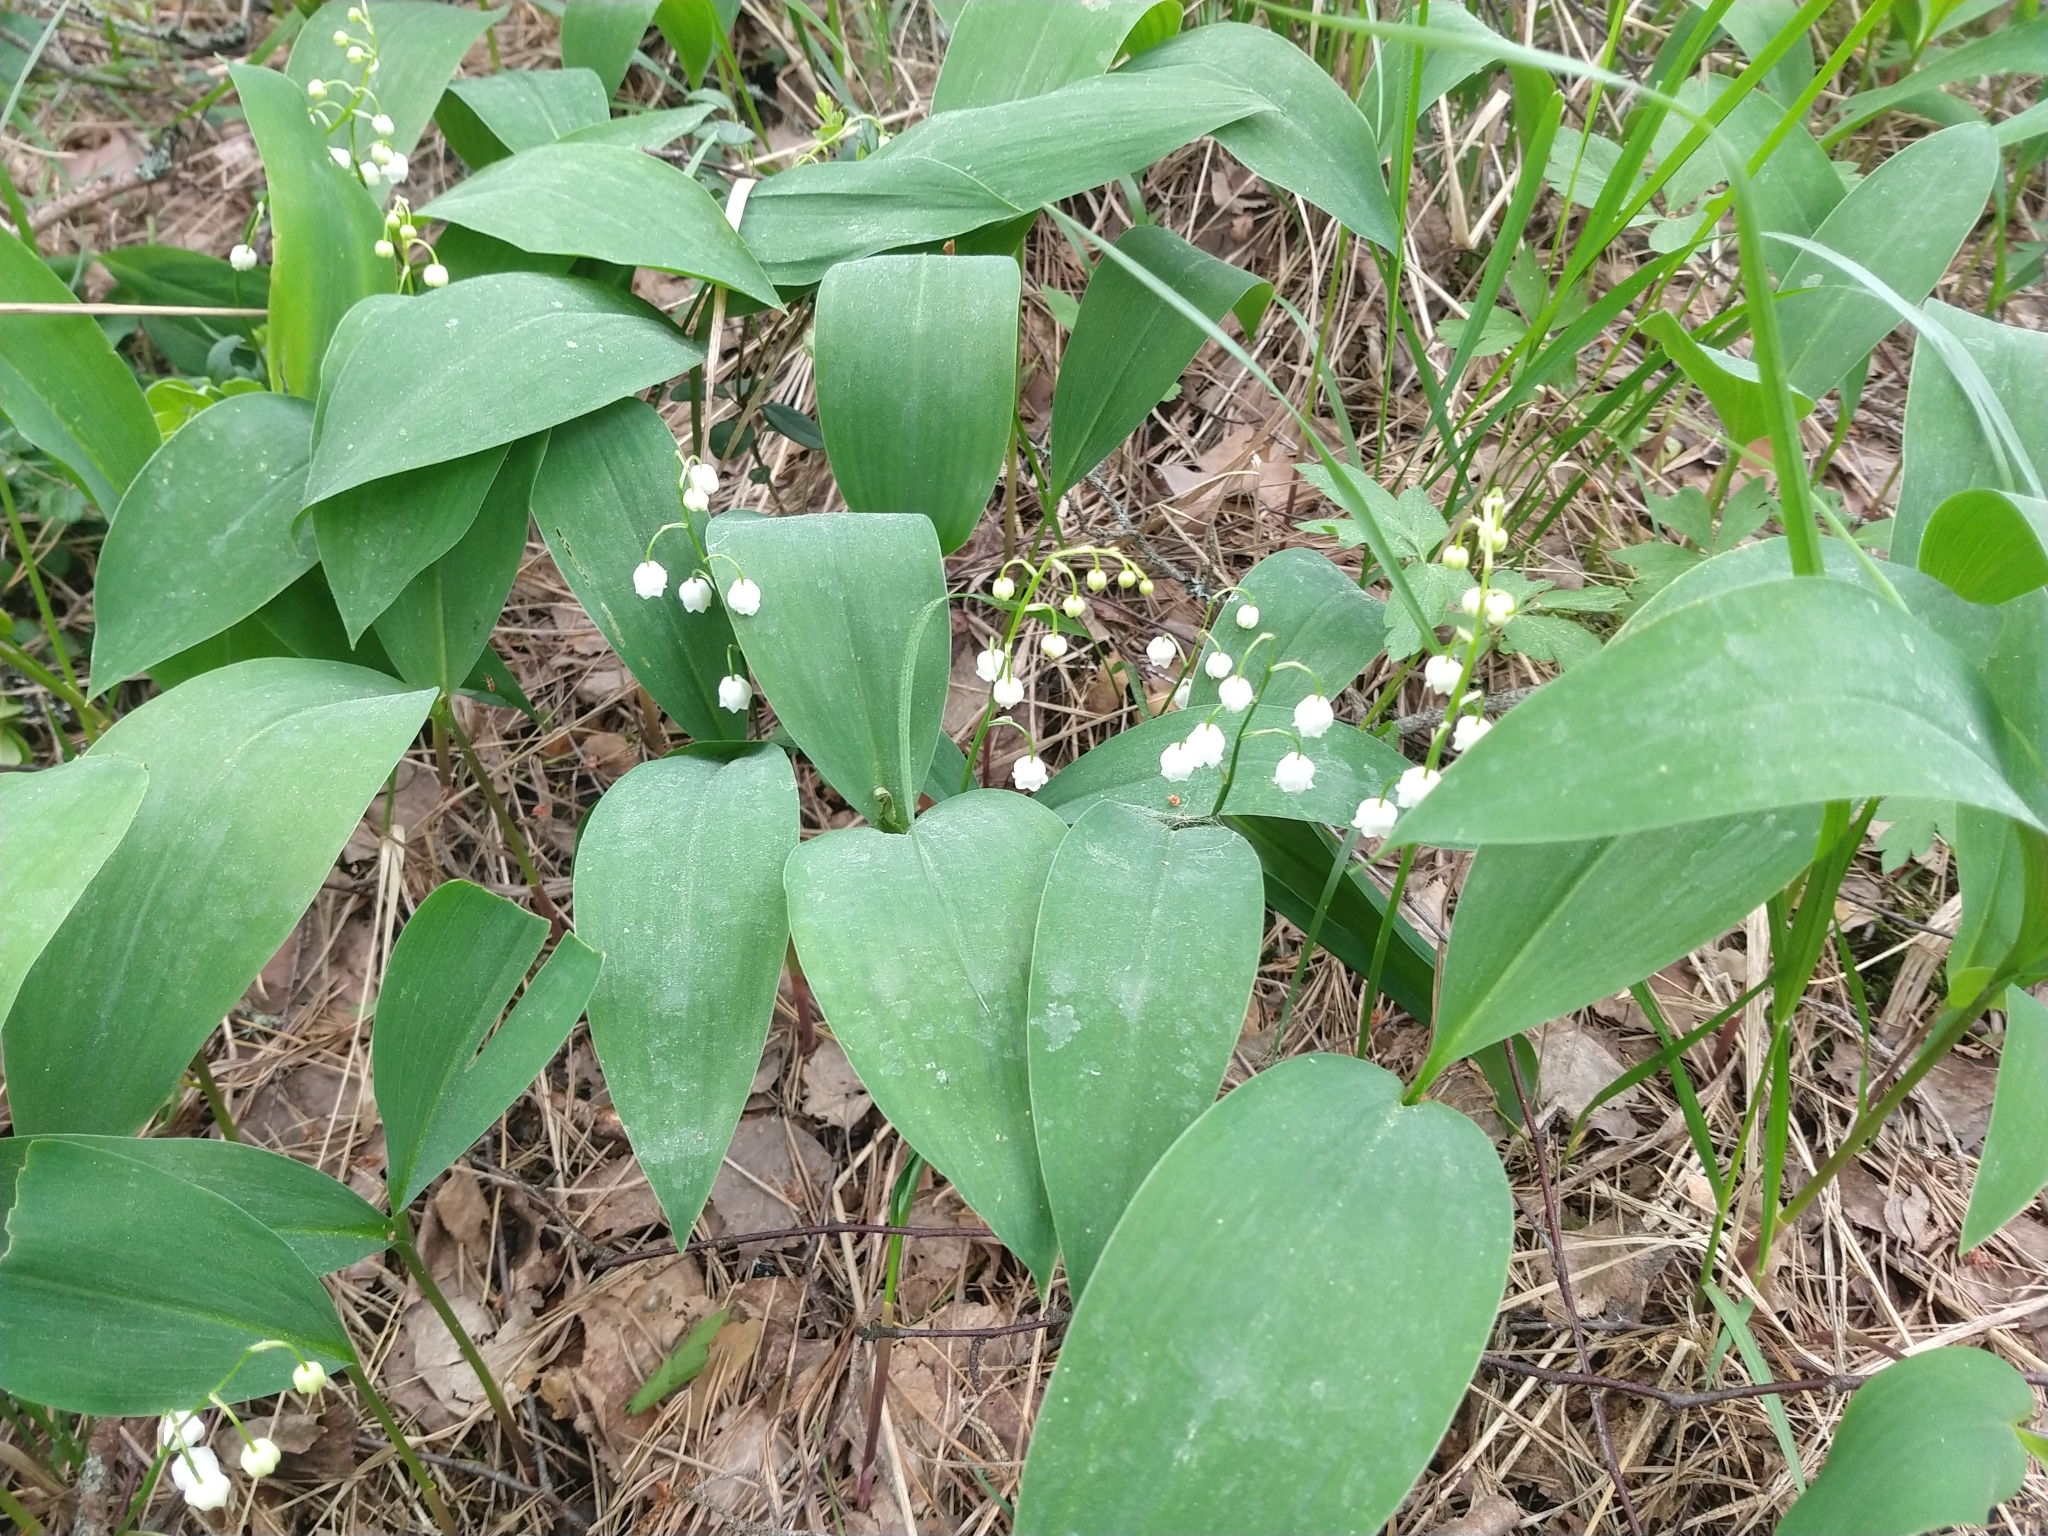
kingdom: Plantae
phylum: Tracheophyta
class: Liliopsida
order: Asparagales
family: Asparagaceae
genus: Convallaria
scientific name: Convallaria majalis
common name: Lily-of-the-valley
